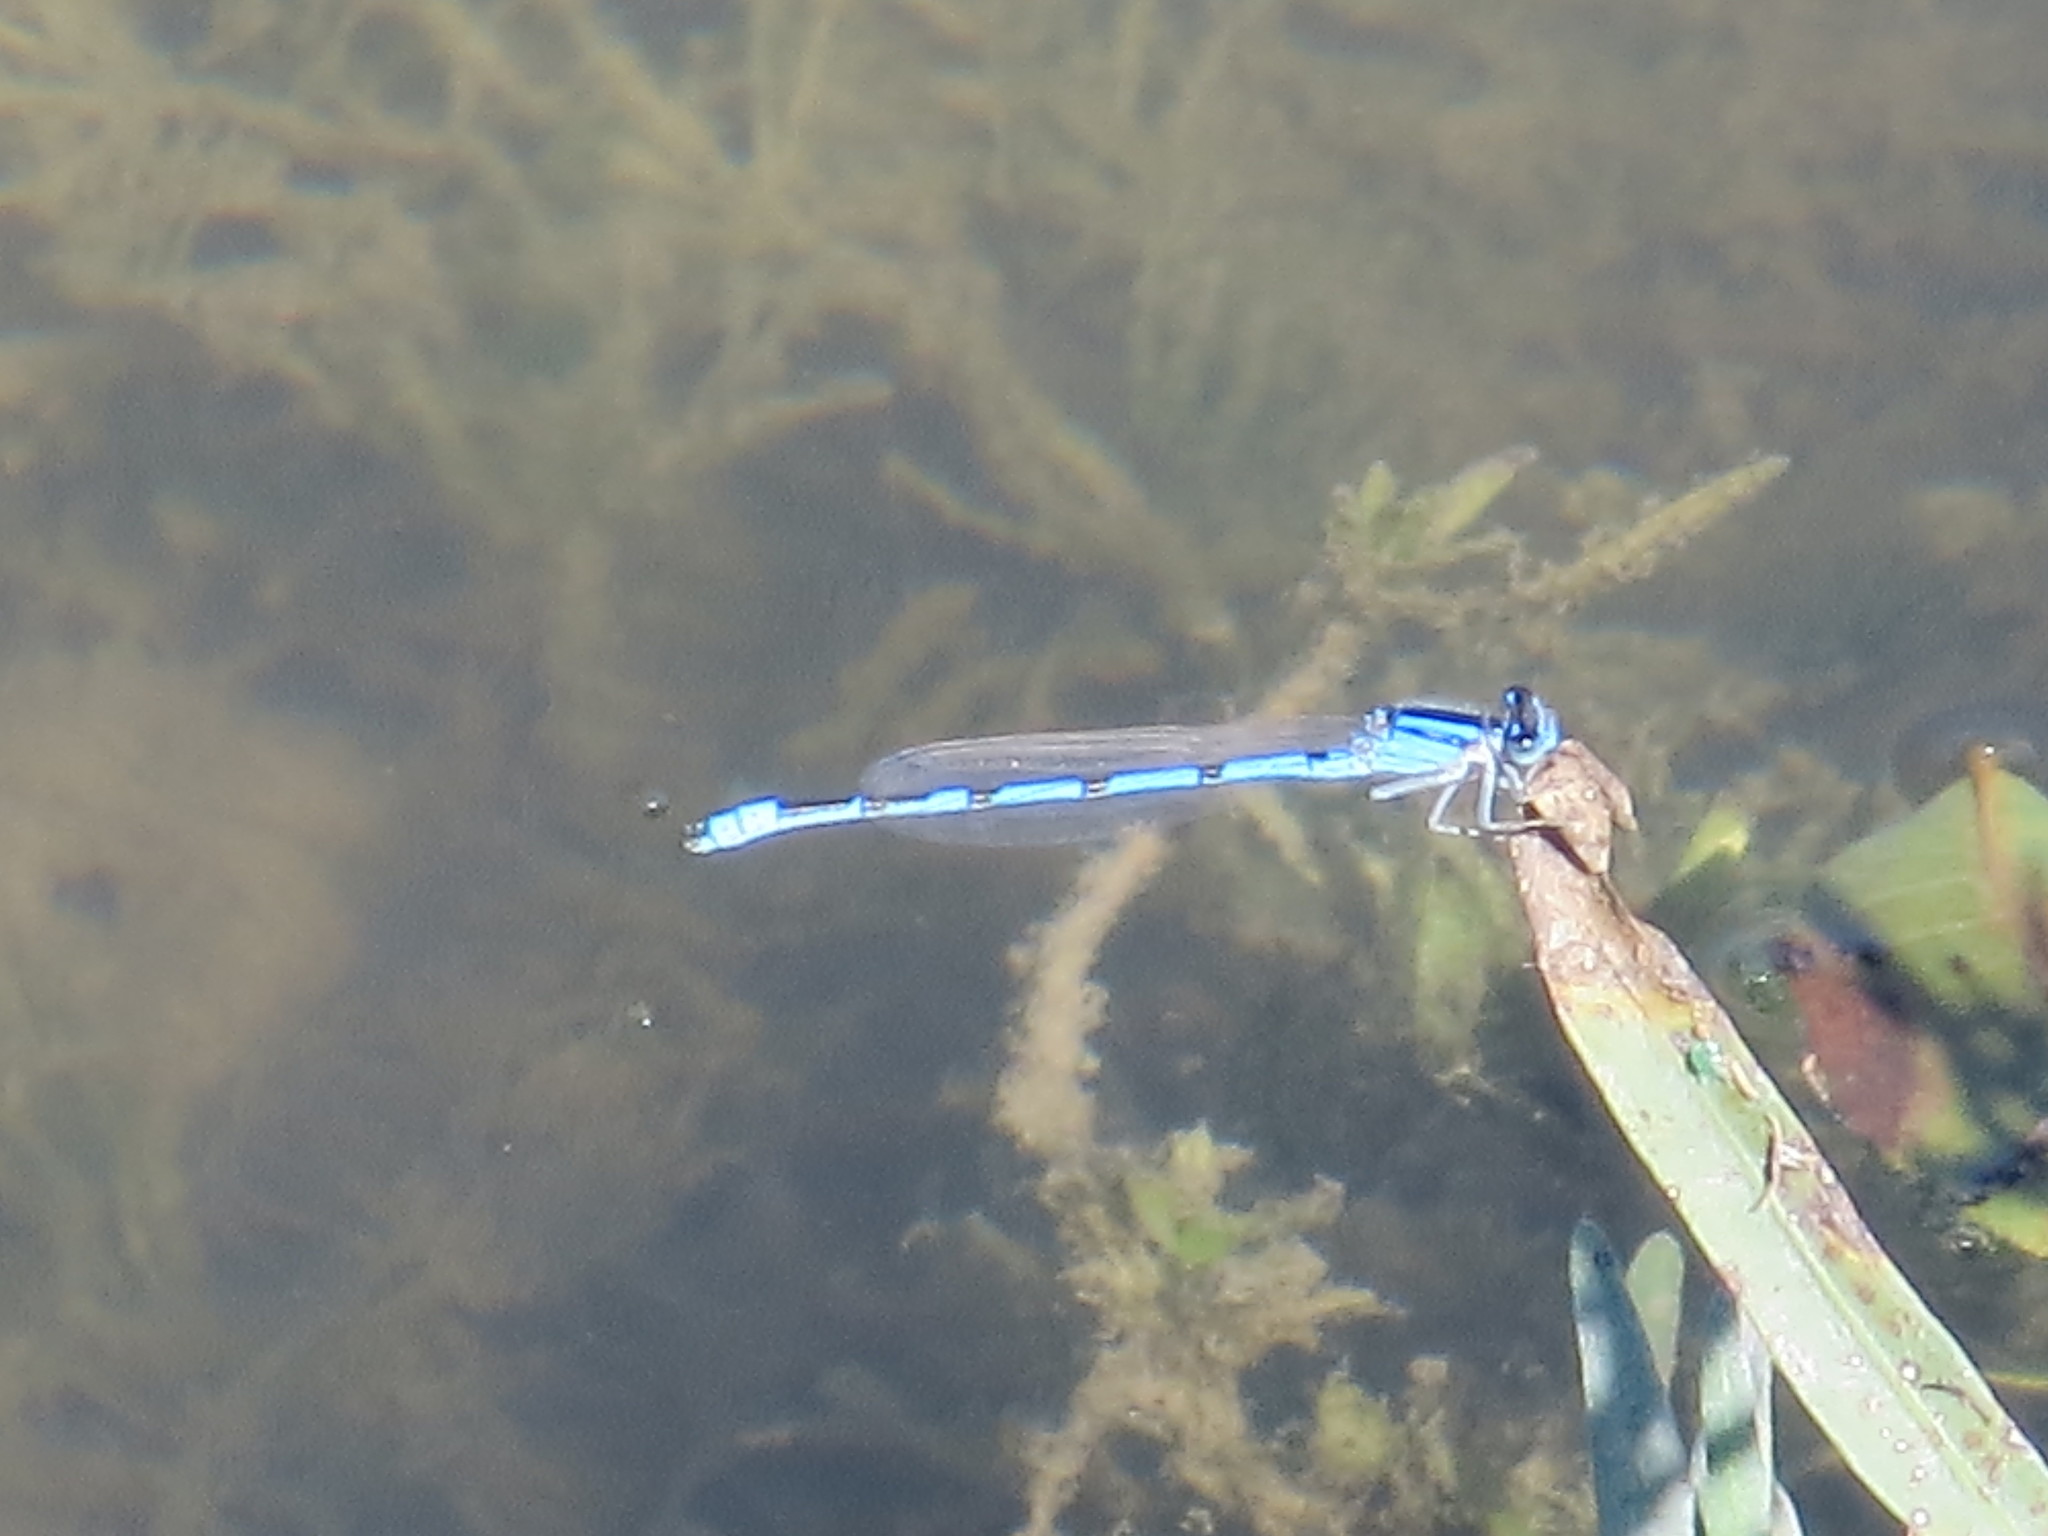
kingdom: Animalia
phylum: Arthropoda
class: Insecta
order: Odonata
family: Coenagrionidae
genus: Enallagma
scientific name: Enallagma civile
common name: Damselfly
